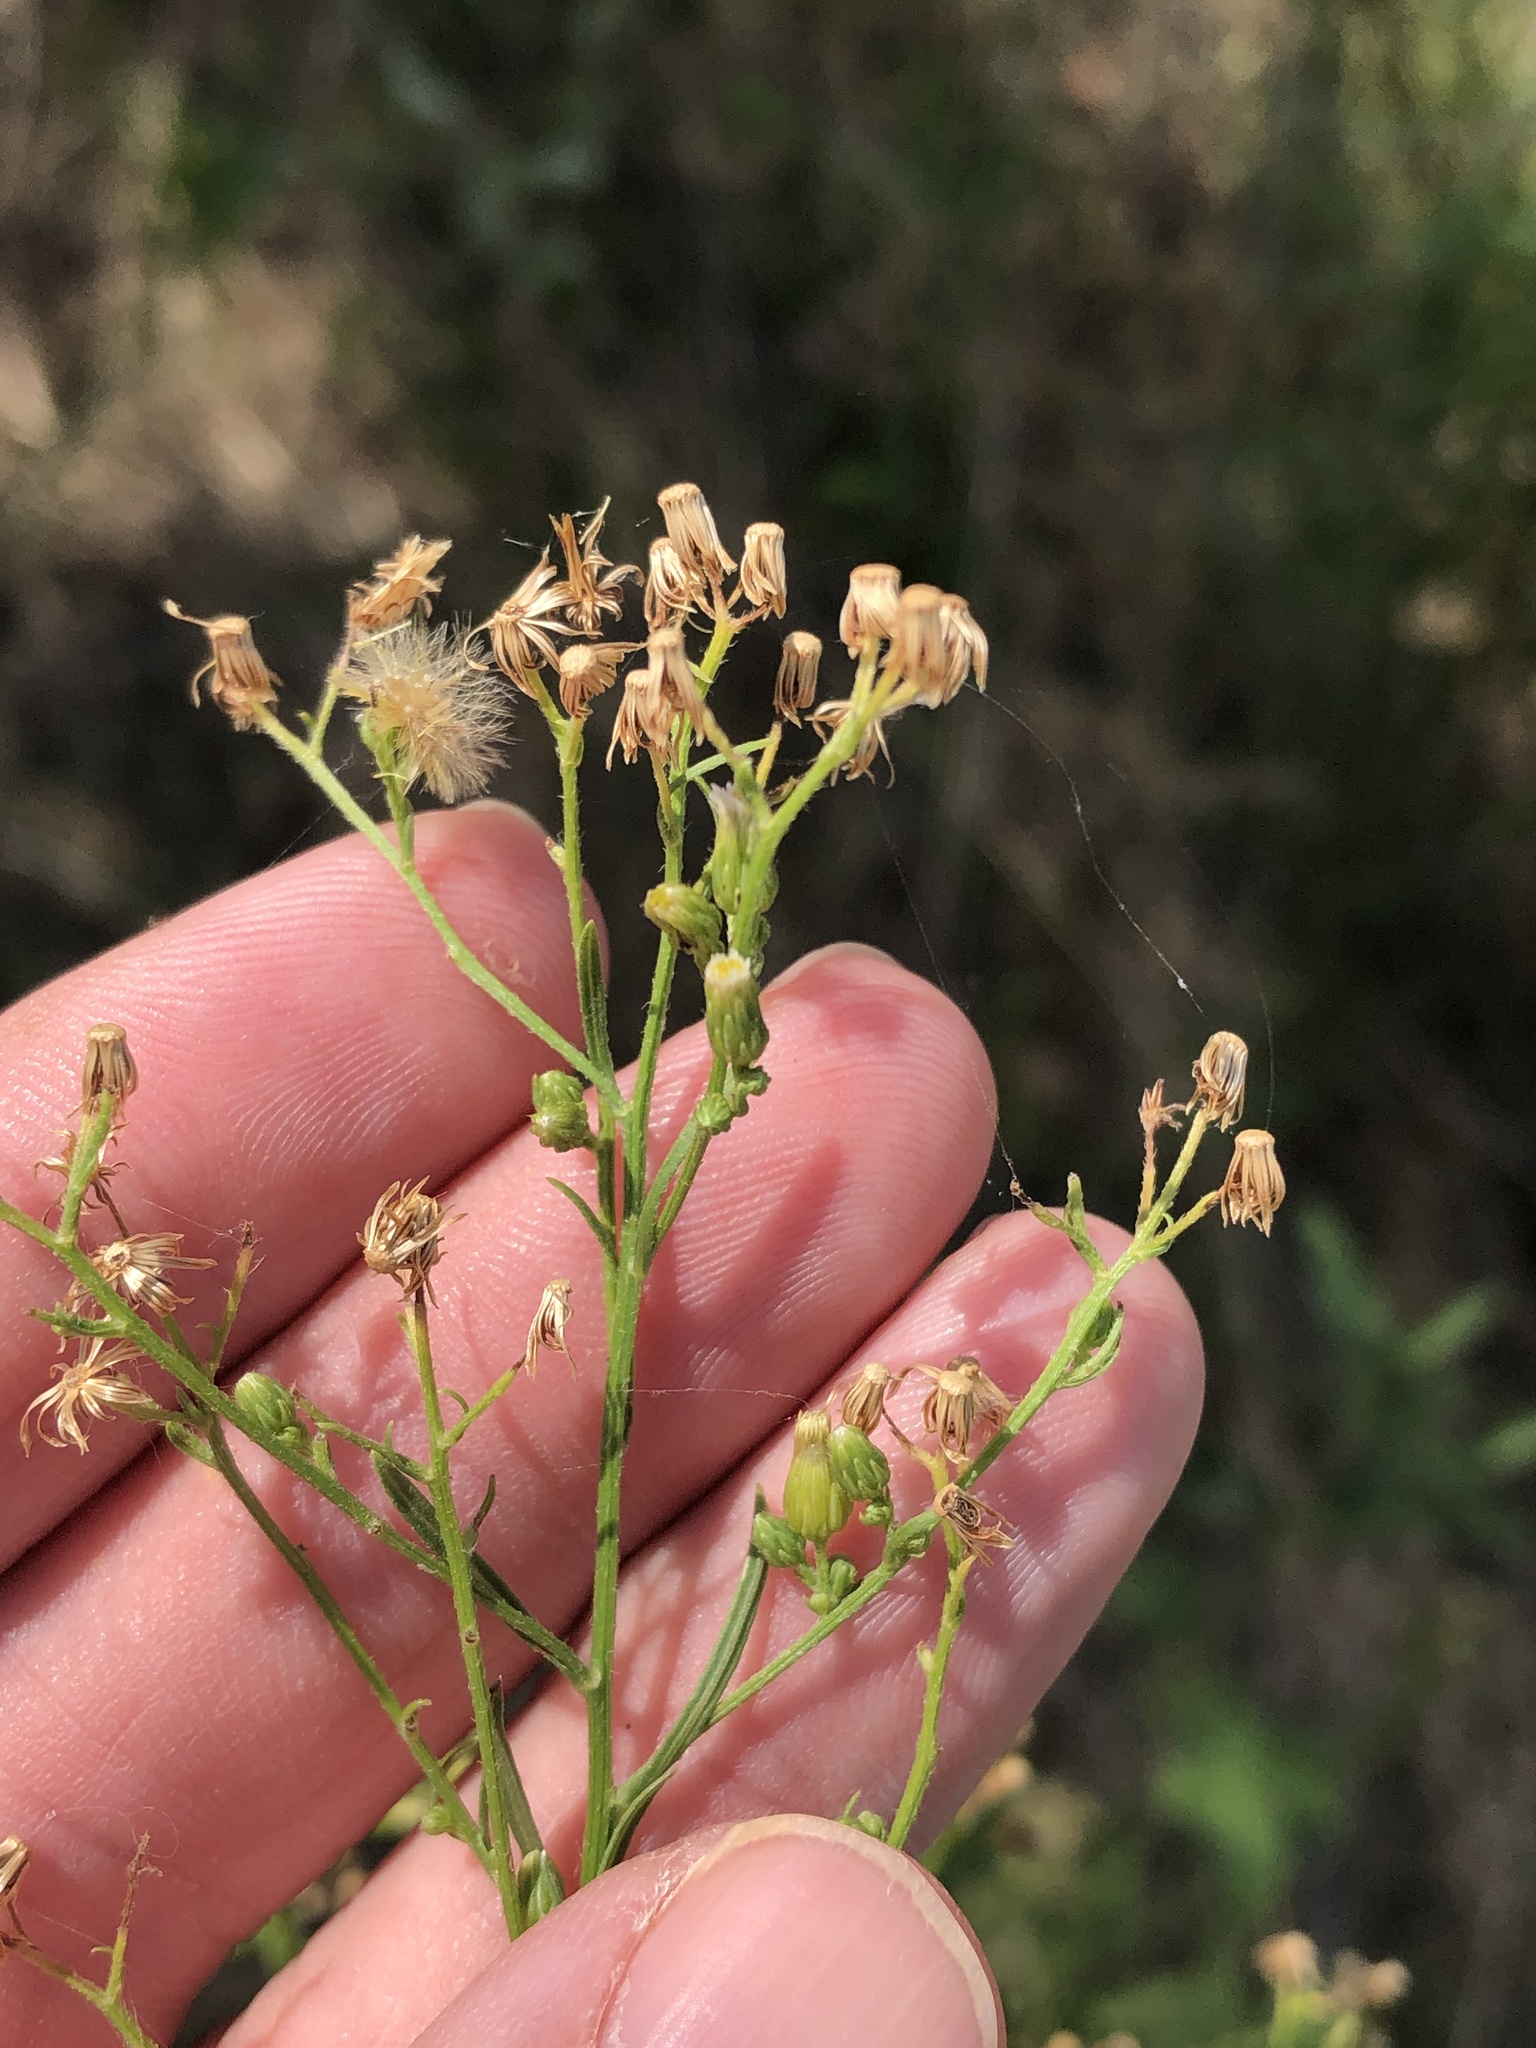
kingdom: Plantae
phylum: Tracheophyta
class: Magnoliopsida
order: Asterales
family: Asteraceae
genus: Erigeron
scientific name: Erigeron canadensis
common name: Canadian fleabane
